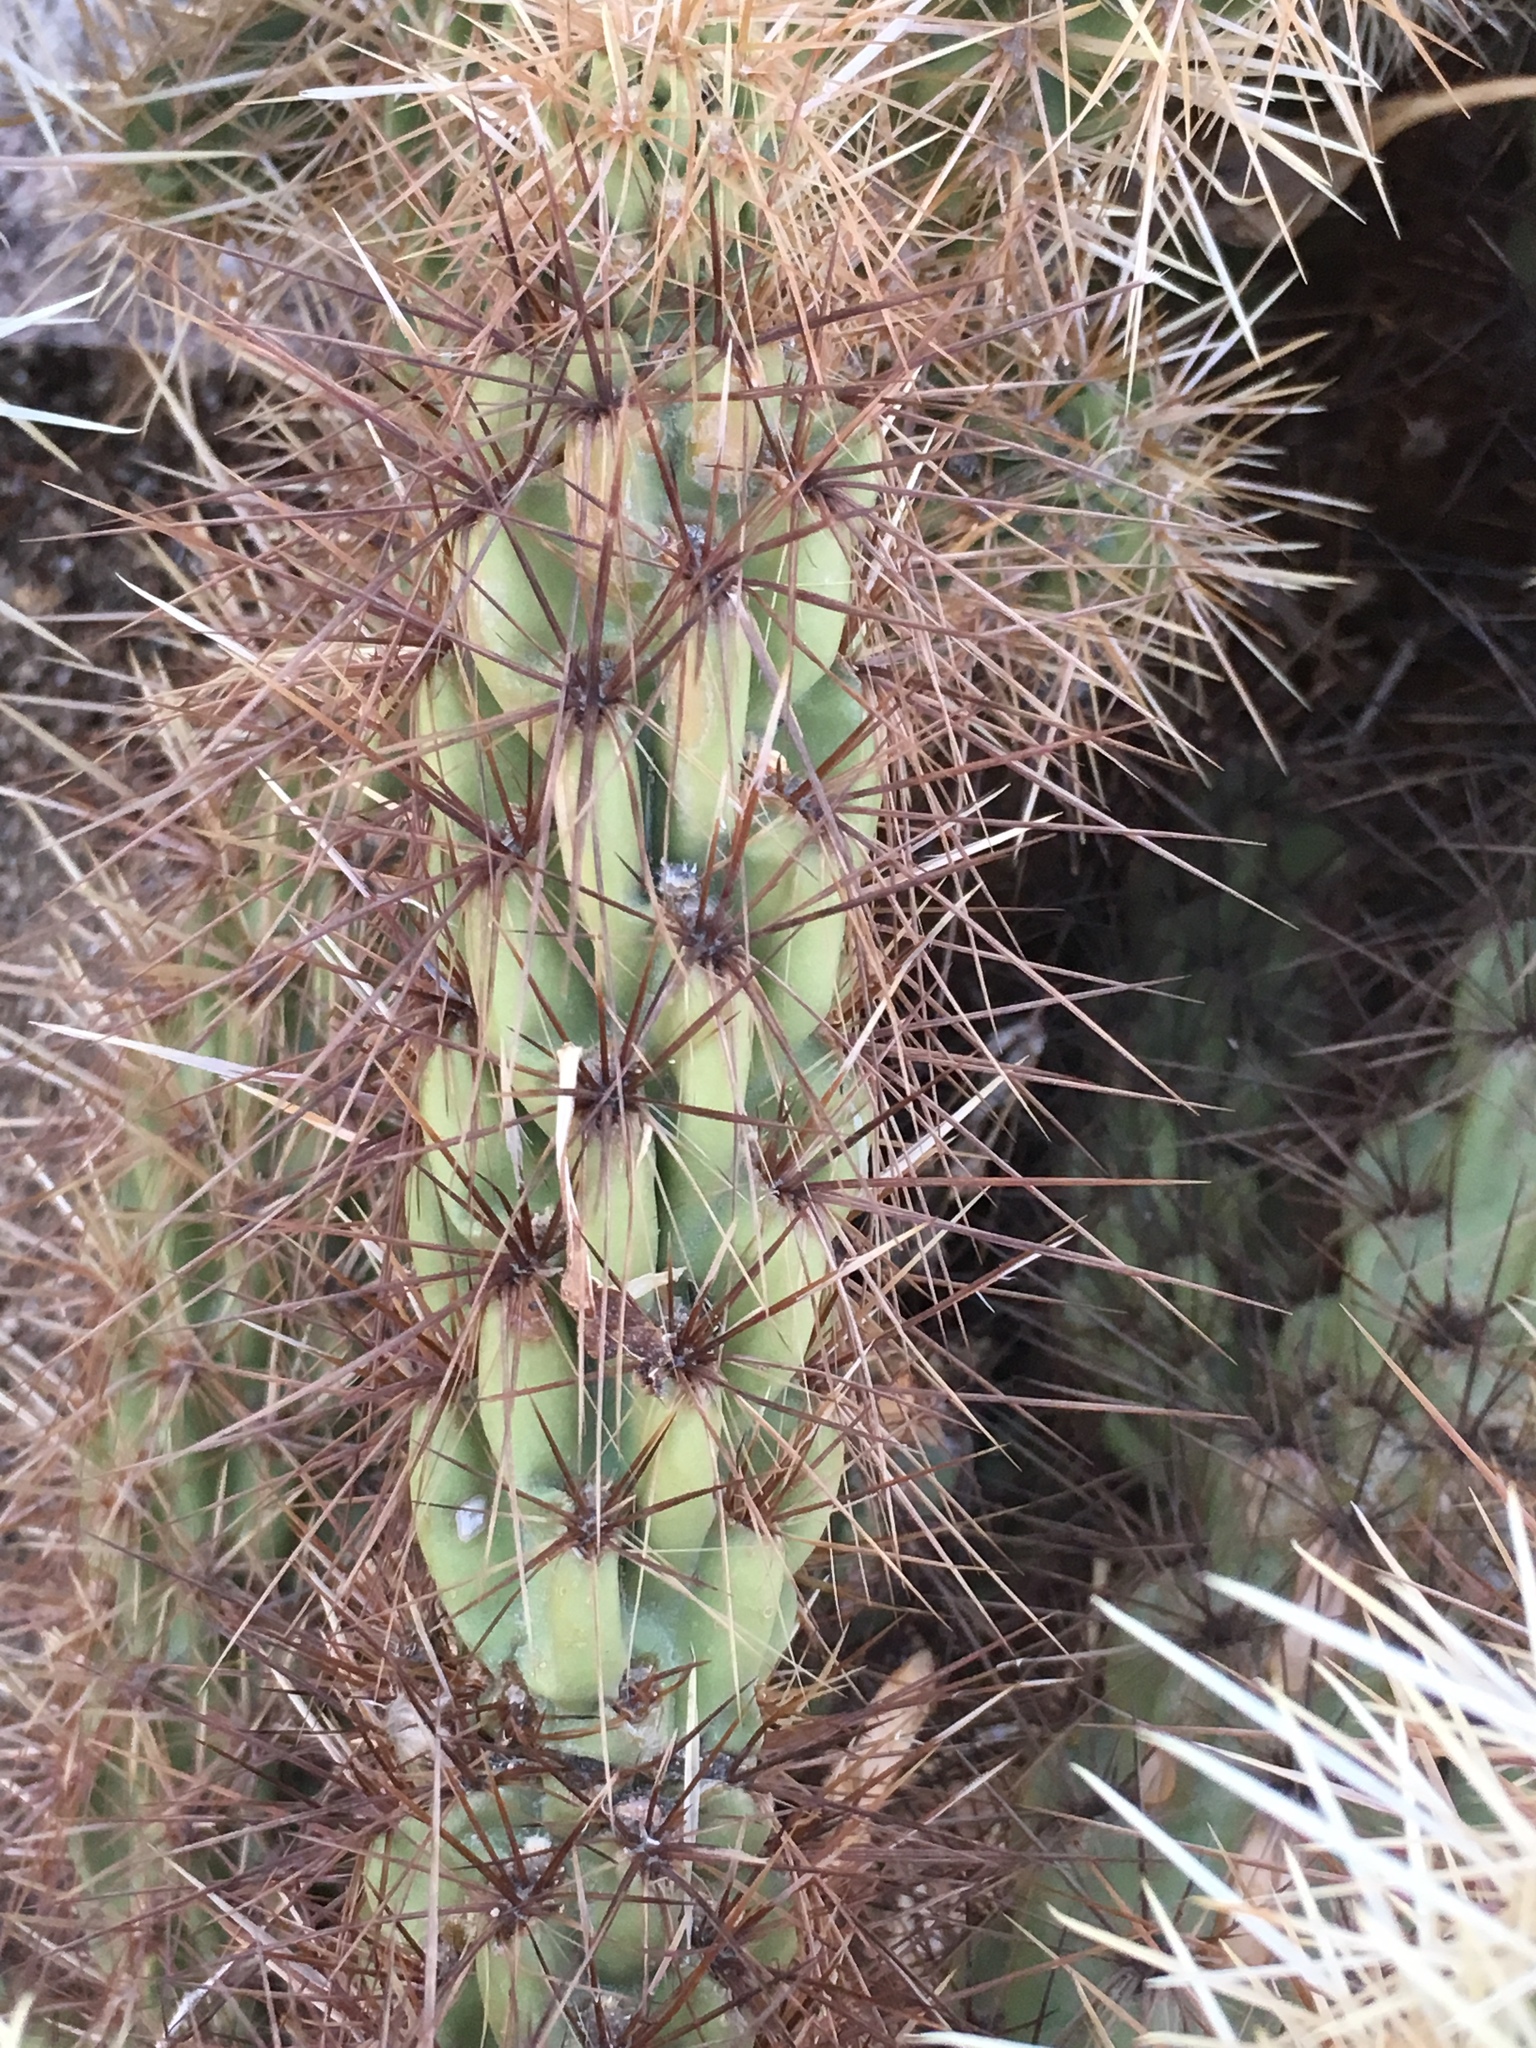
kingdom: Plantae
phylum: Tracheophyta
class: Magnoliopsida
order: Caryophyllales
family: Cactaceae
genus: Cylindropuntia
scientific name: Cylindropuntia ganderi
